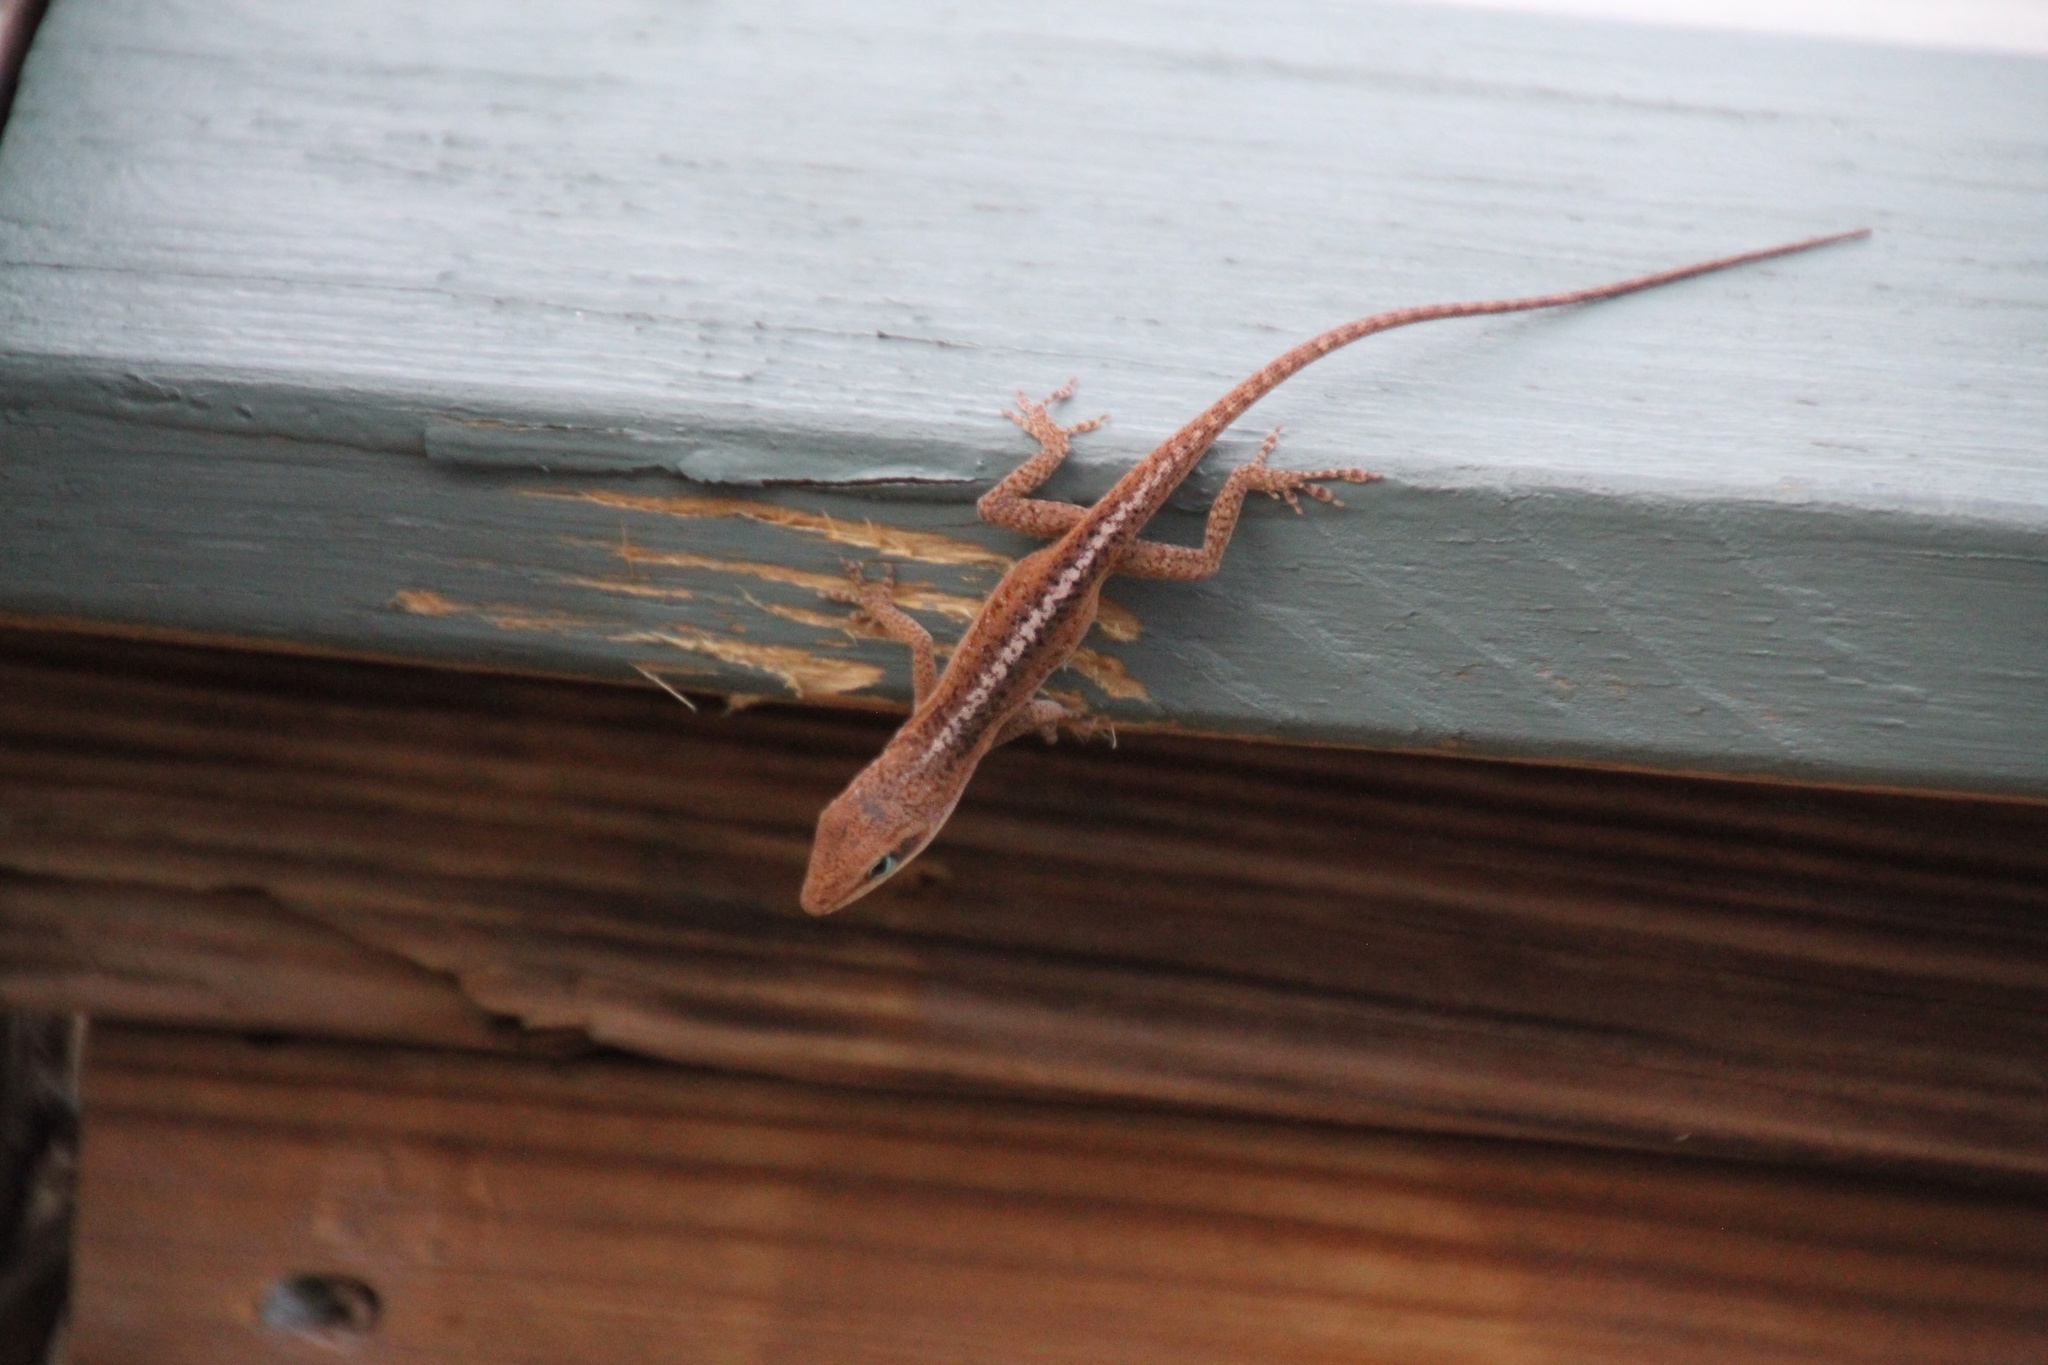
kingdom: Animalia
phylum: Chordata
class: Squamata
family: Dactyloidae
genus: Anolis
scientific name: Anolis carolinensis
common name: Green anole
